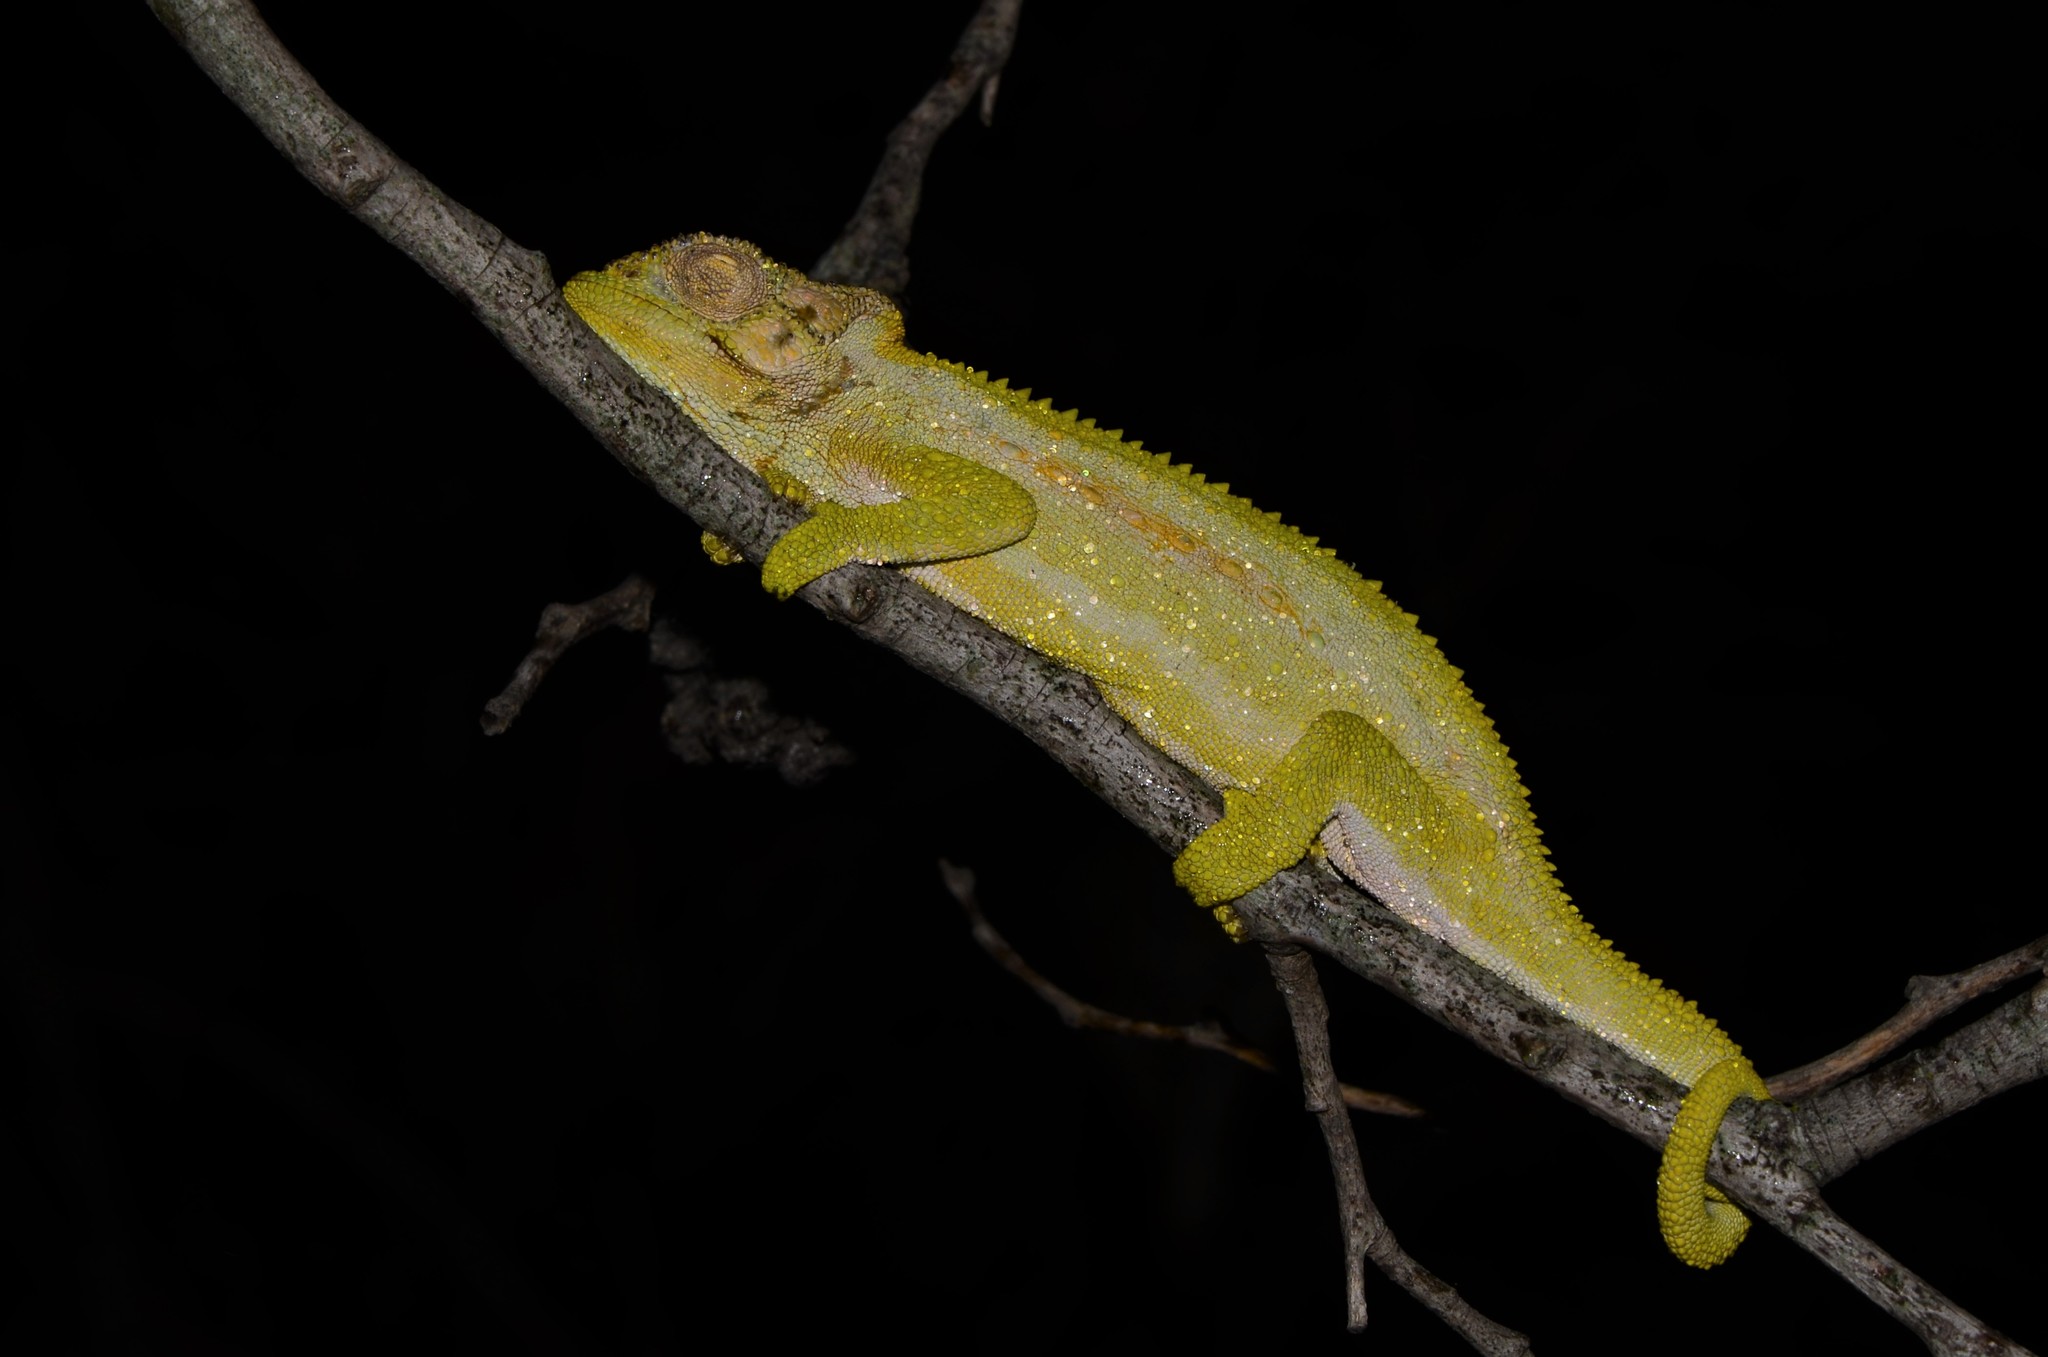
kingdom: Animalia
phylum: Chordata
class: Squamata
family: Chamaeleonidae
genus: Bradypodion
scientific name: Bradypodion pumilum
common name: Cape dwarf chameleon
